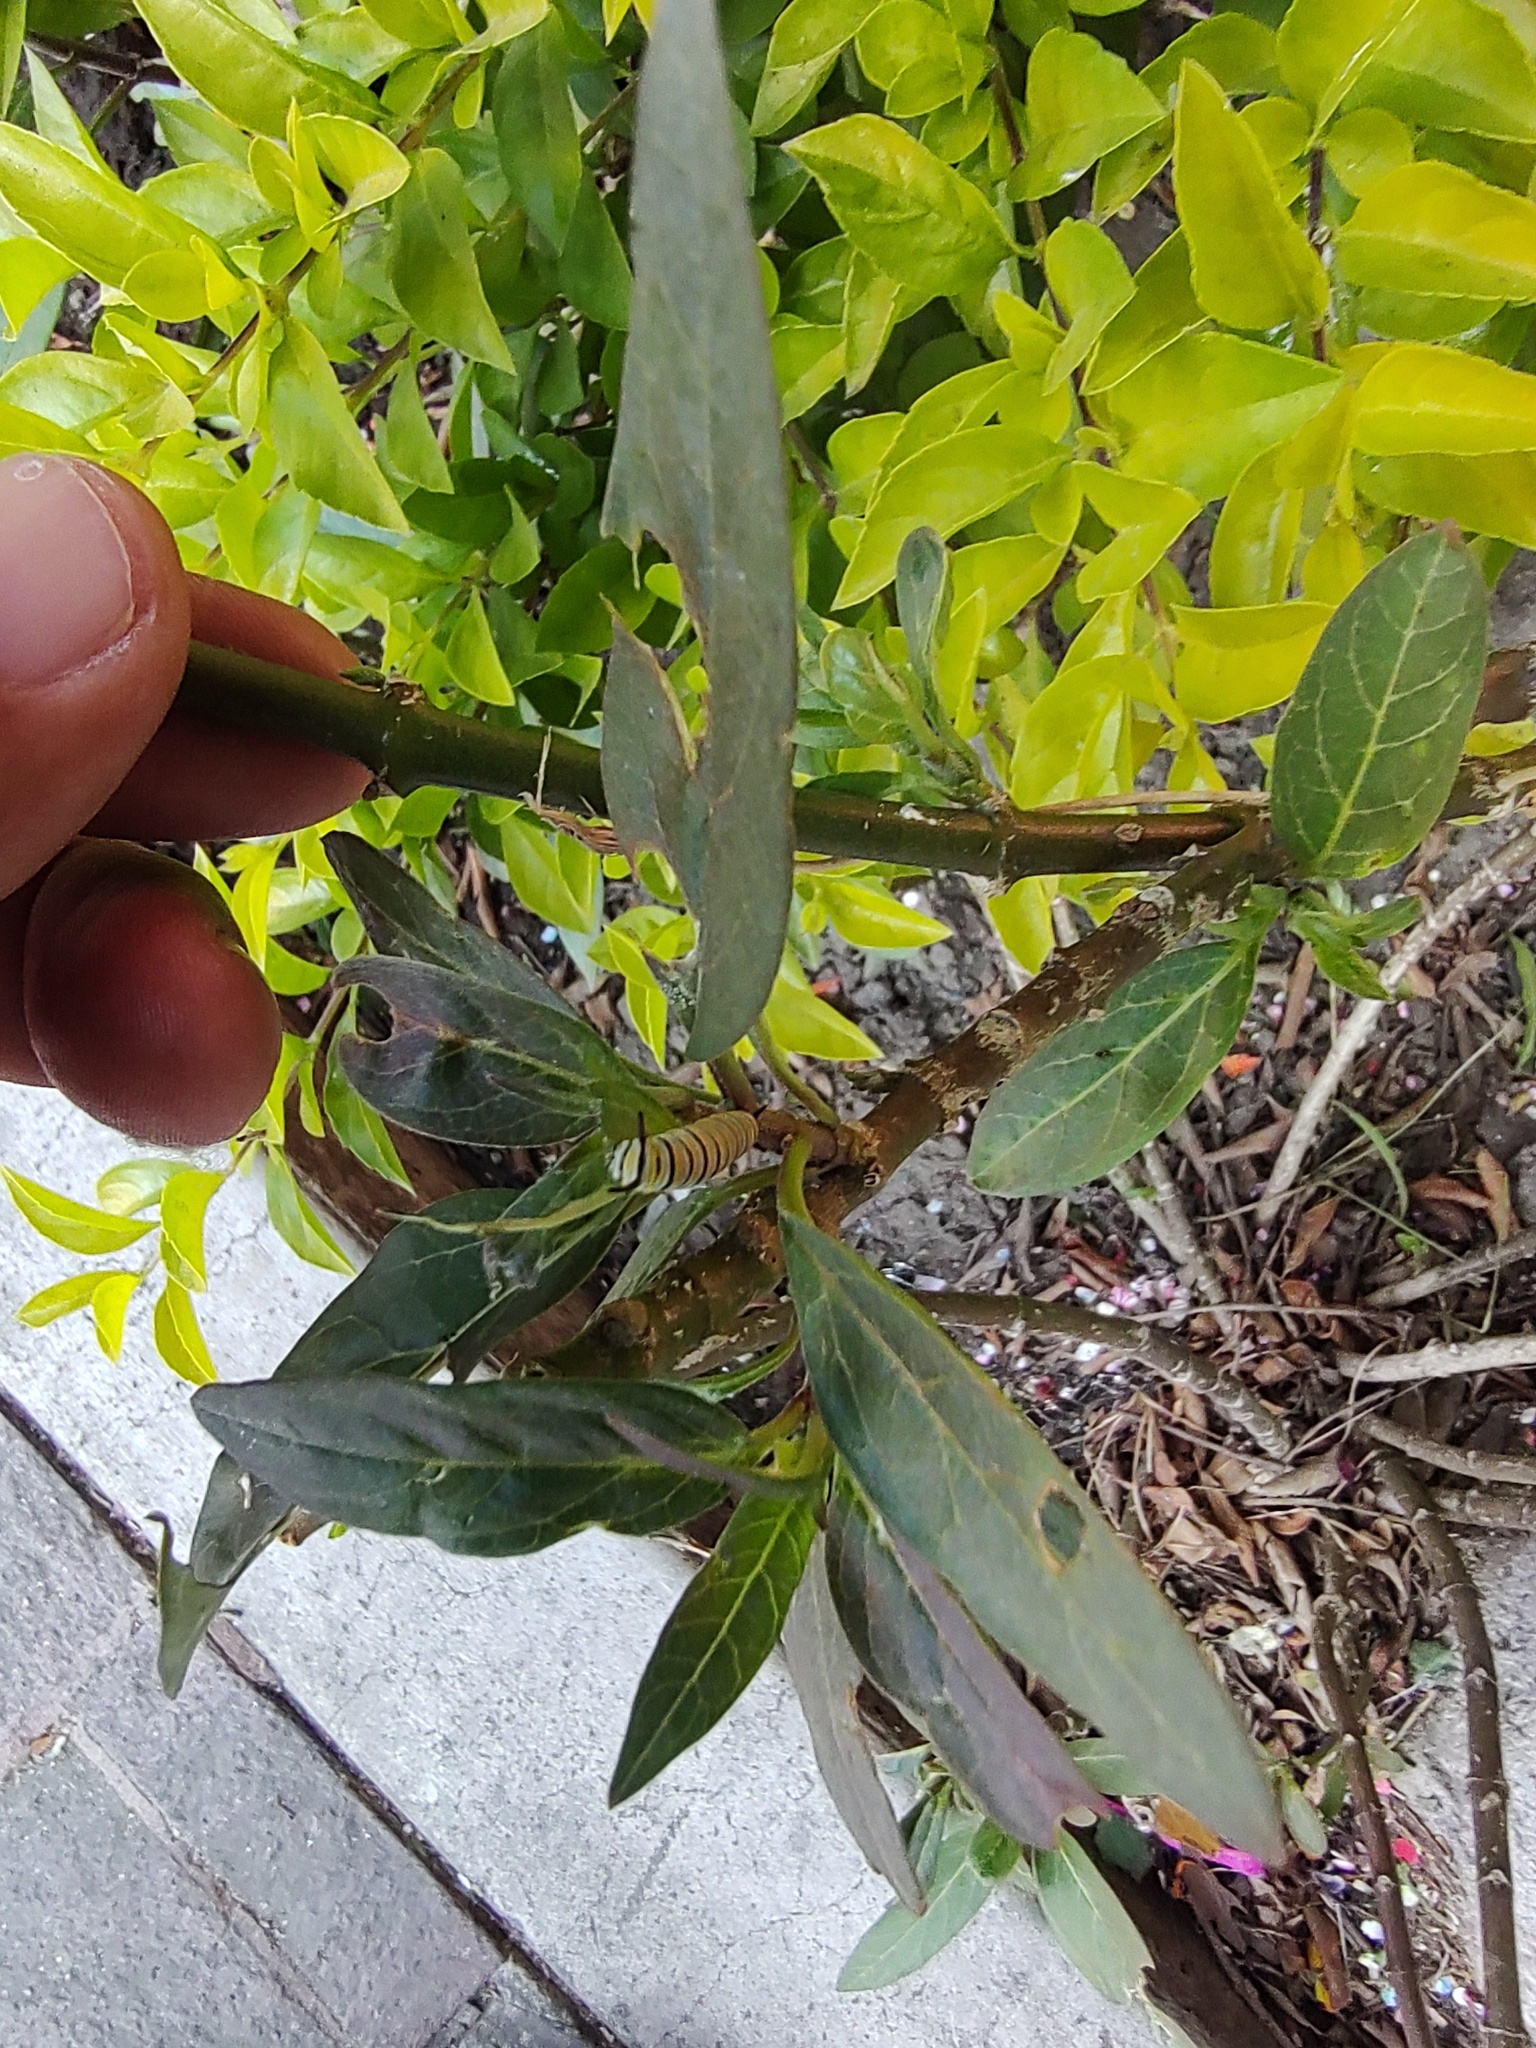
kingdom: Animalia
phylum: Arthropoda
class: Insecta
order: Lepidoptera
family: Nymphalidae
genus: Danaus
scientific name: Danaus plexippus
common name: Monarch
